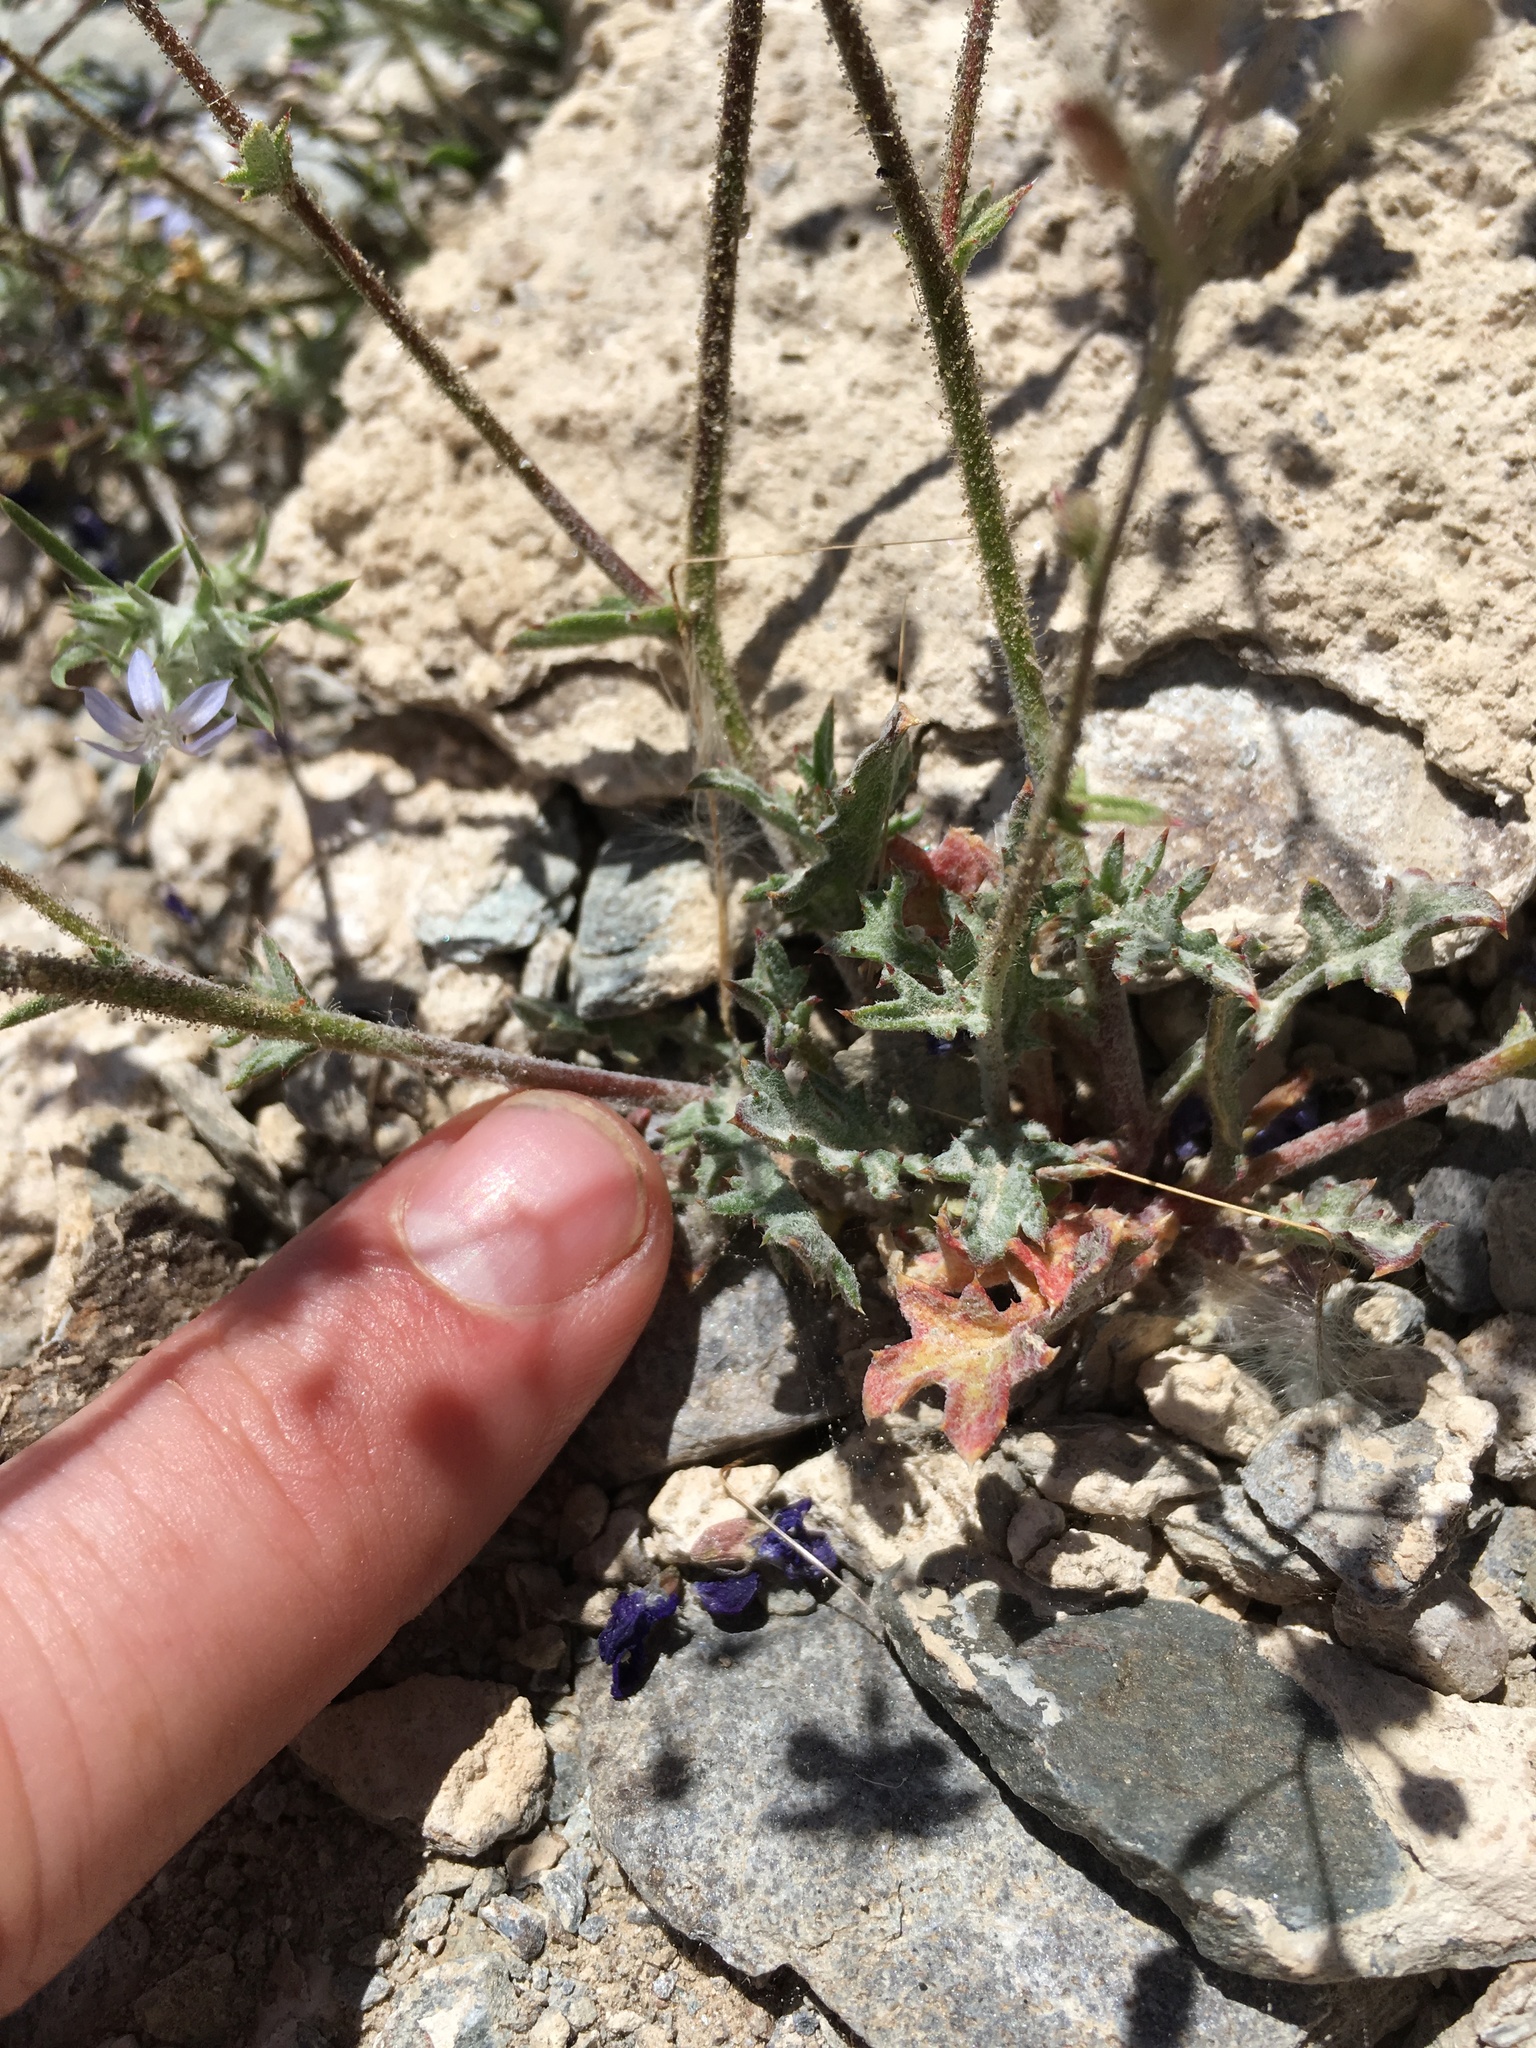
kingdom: Plantae
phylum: Tracheophyta
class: Magnoliopsida
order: Ericales
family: Polemoniaceae
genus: Gilia
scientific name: Gilia cana
